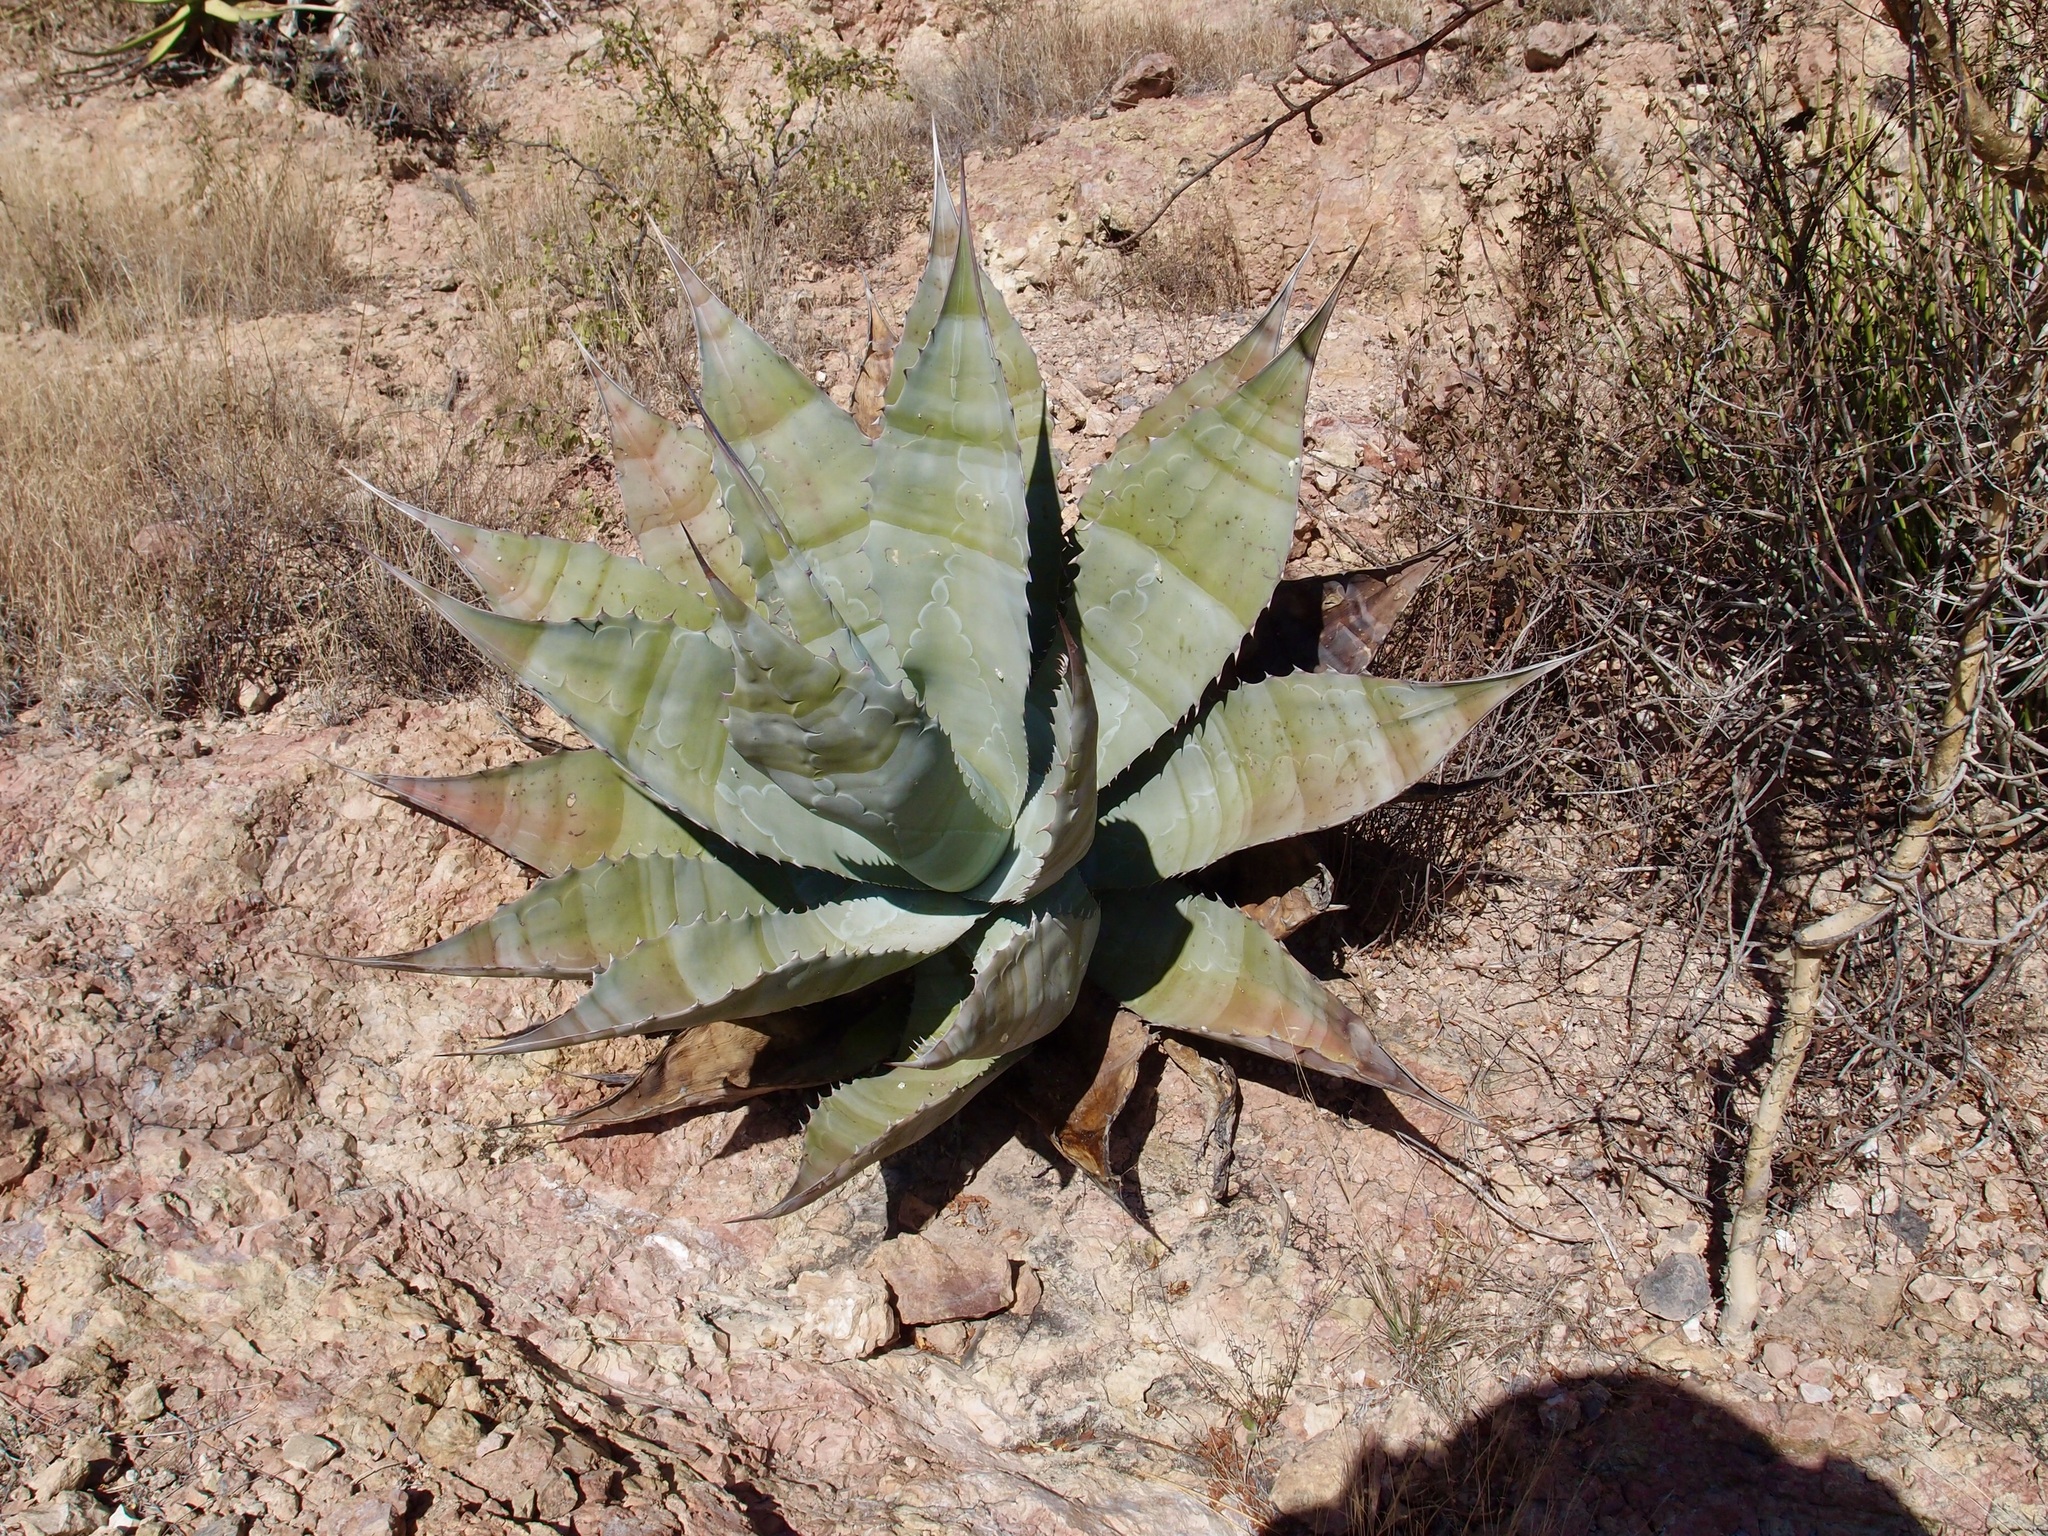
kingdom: Plantae
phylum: Tracheophyta
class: Liliopsida
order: Asparagales
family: Asparagaceae
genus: Agave
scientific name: Agave colorata
